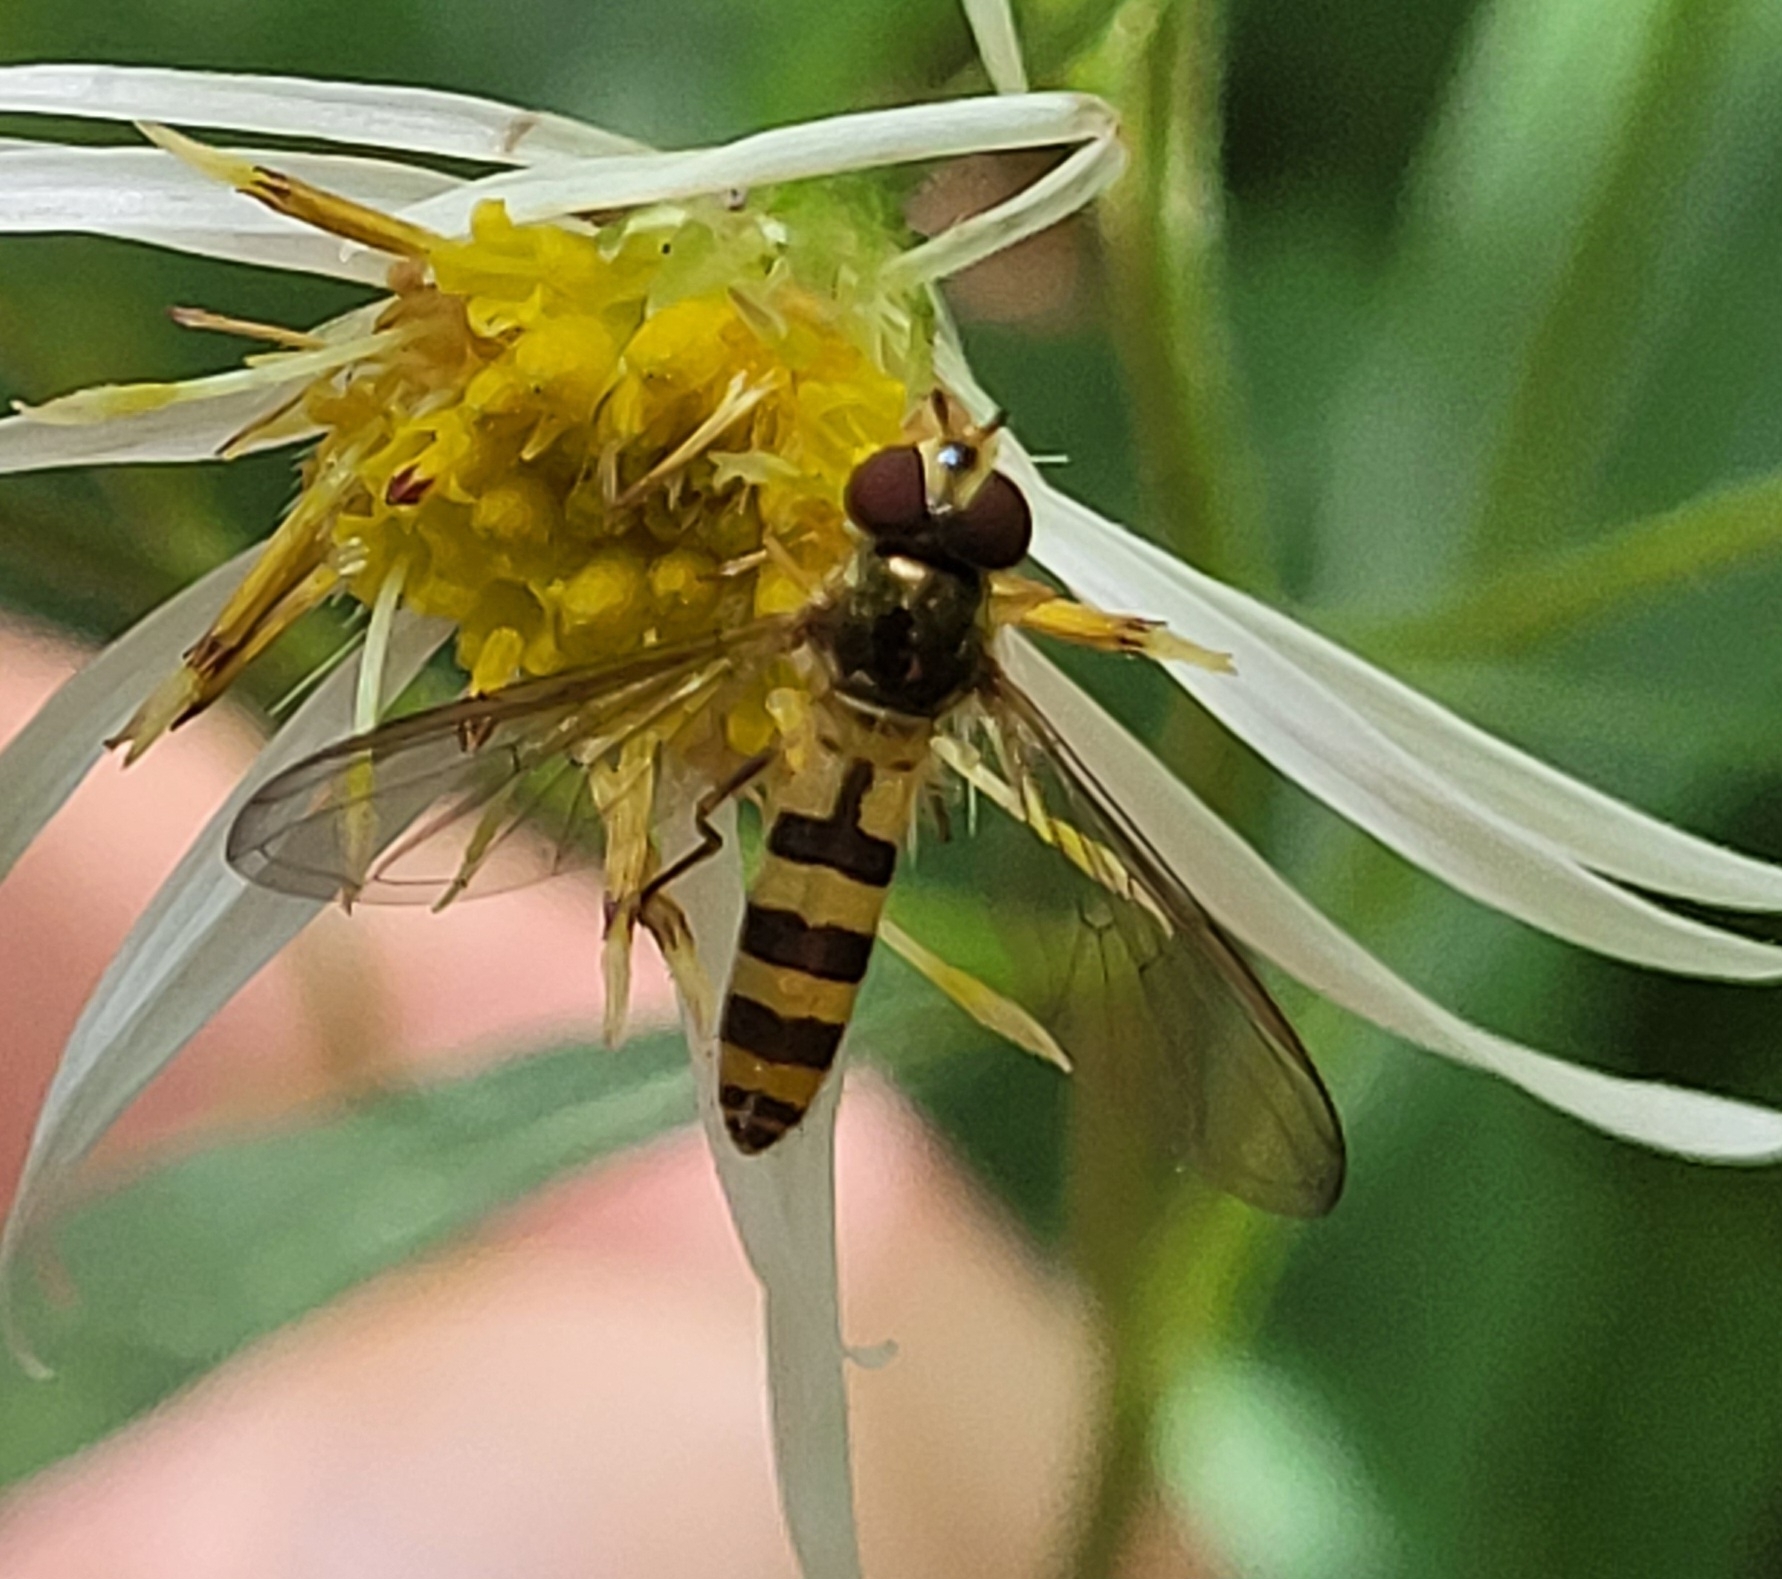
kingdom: Animalia
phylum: Arthropoda
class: Insecta
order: Diptera
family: Syrphidae
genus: Meliscaeva
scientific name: Meliscaeva cinctella
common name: American thintail fly
